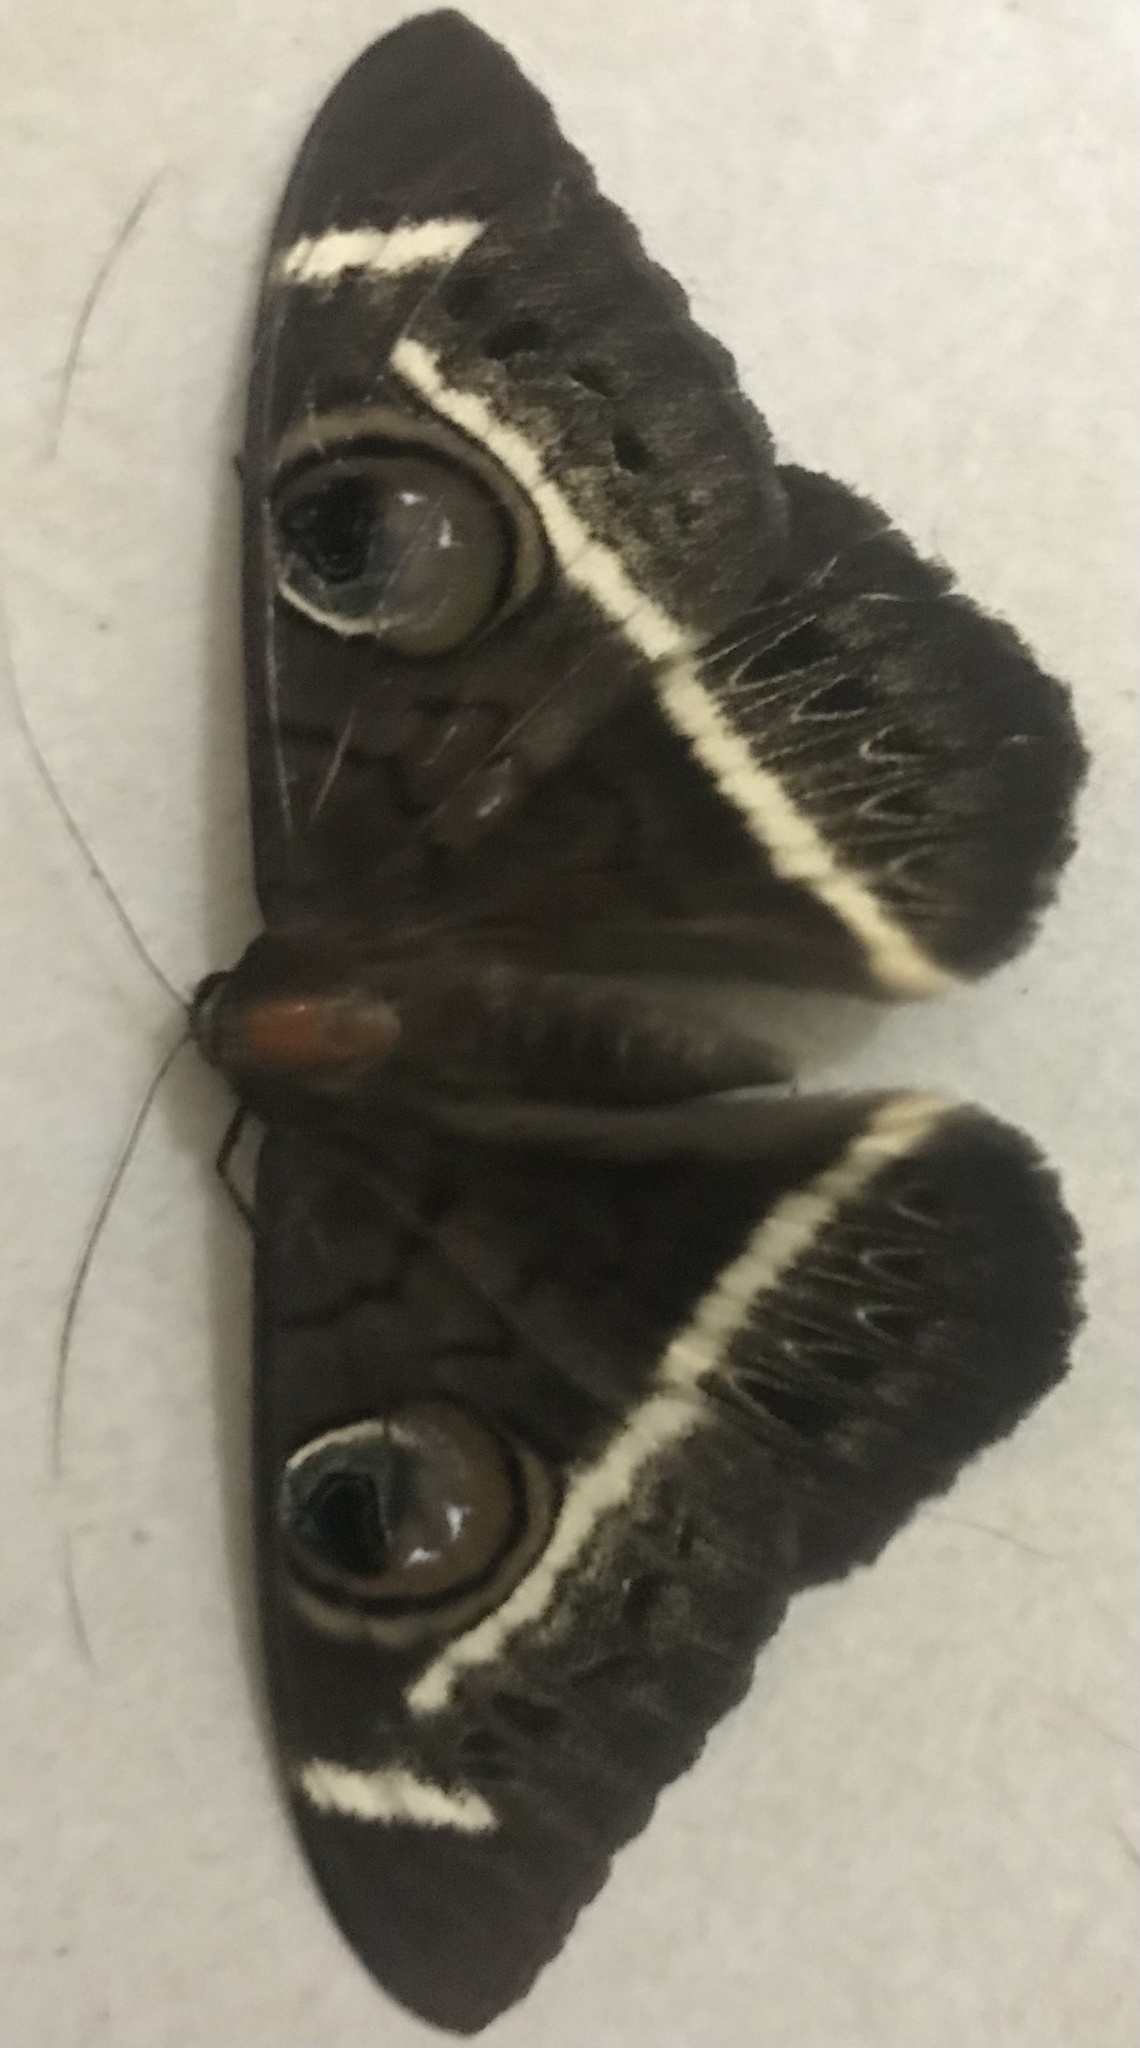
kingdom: Animalia
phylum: Arthropoda
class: Insecta
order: Lepidoptera
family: Erebidae
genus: Cyligramma
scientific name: Cyligramma latona
